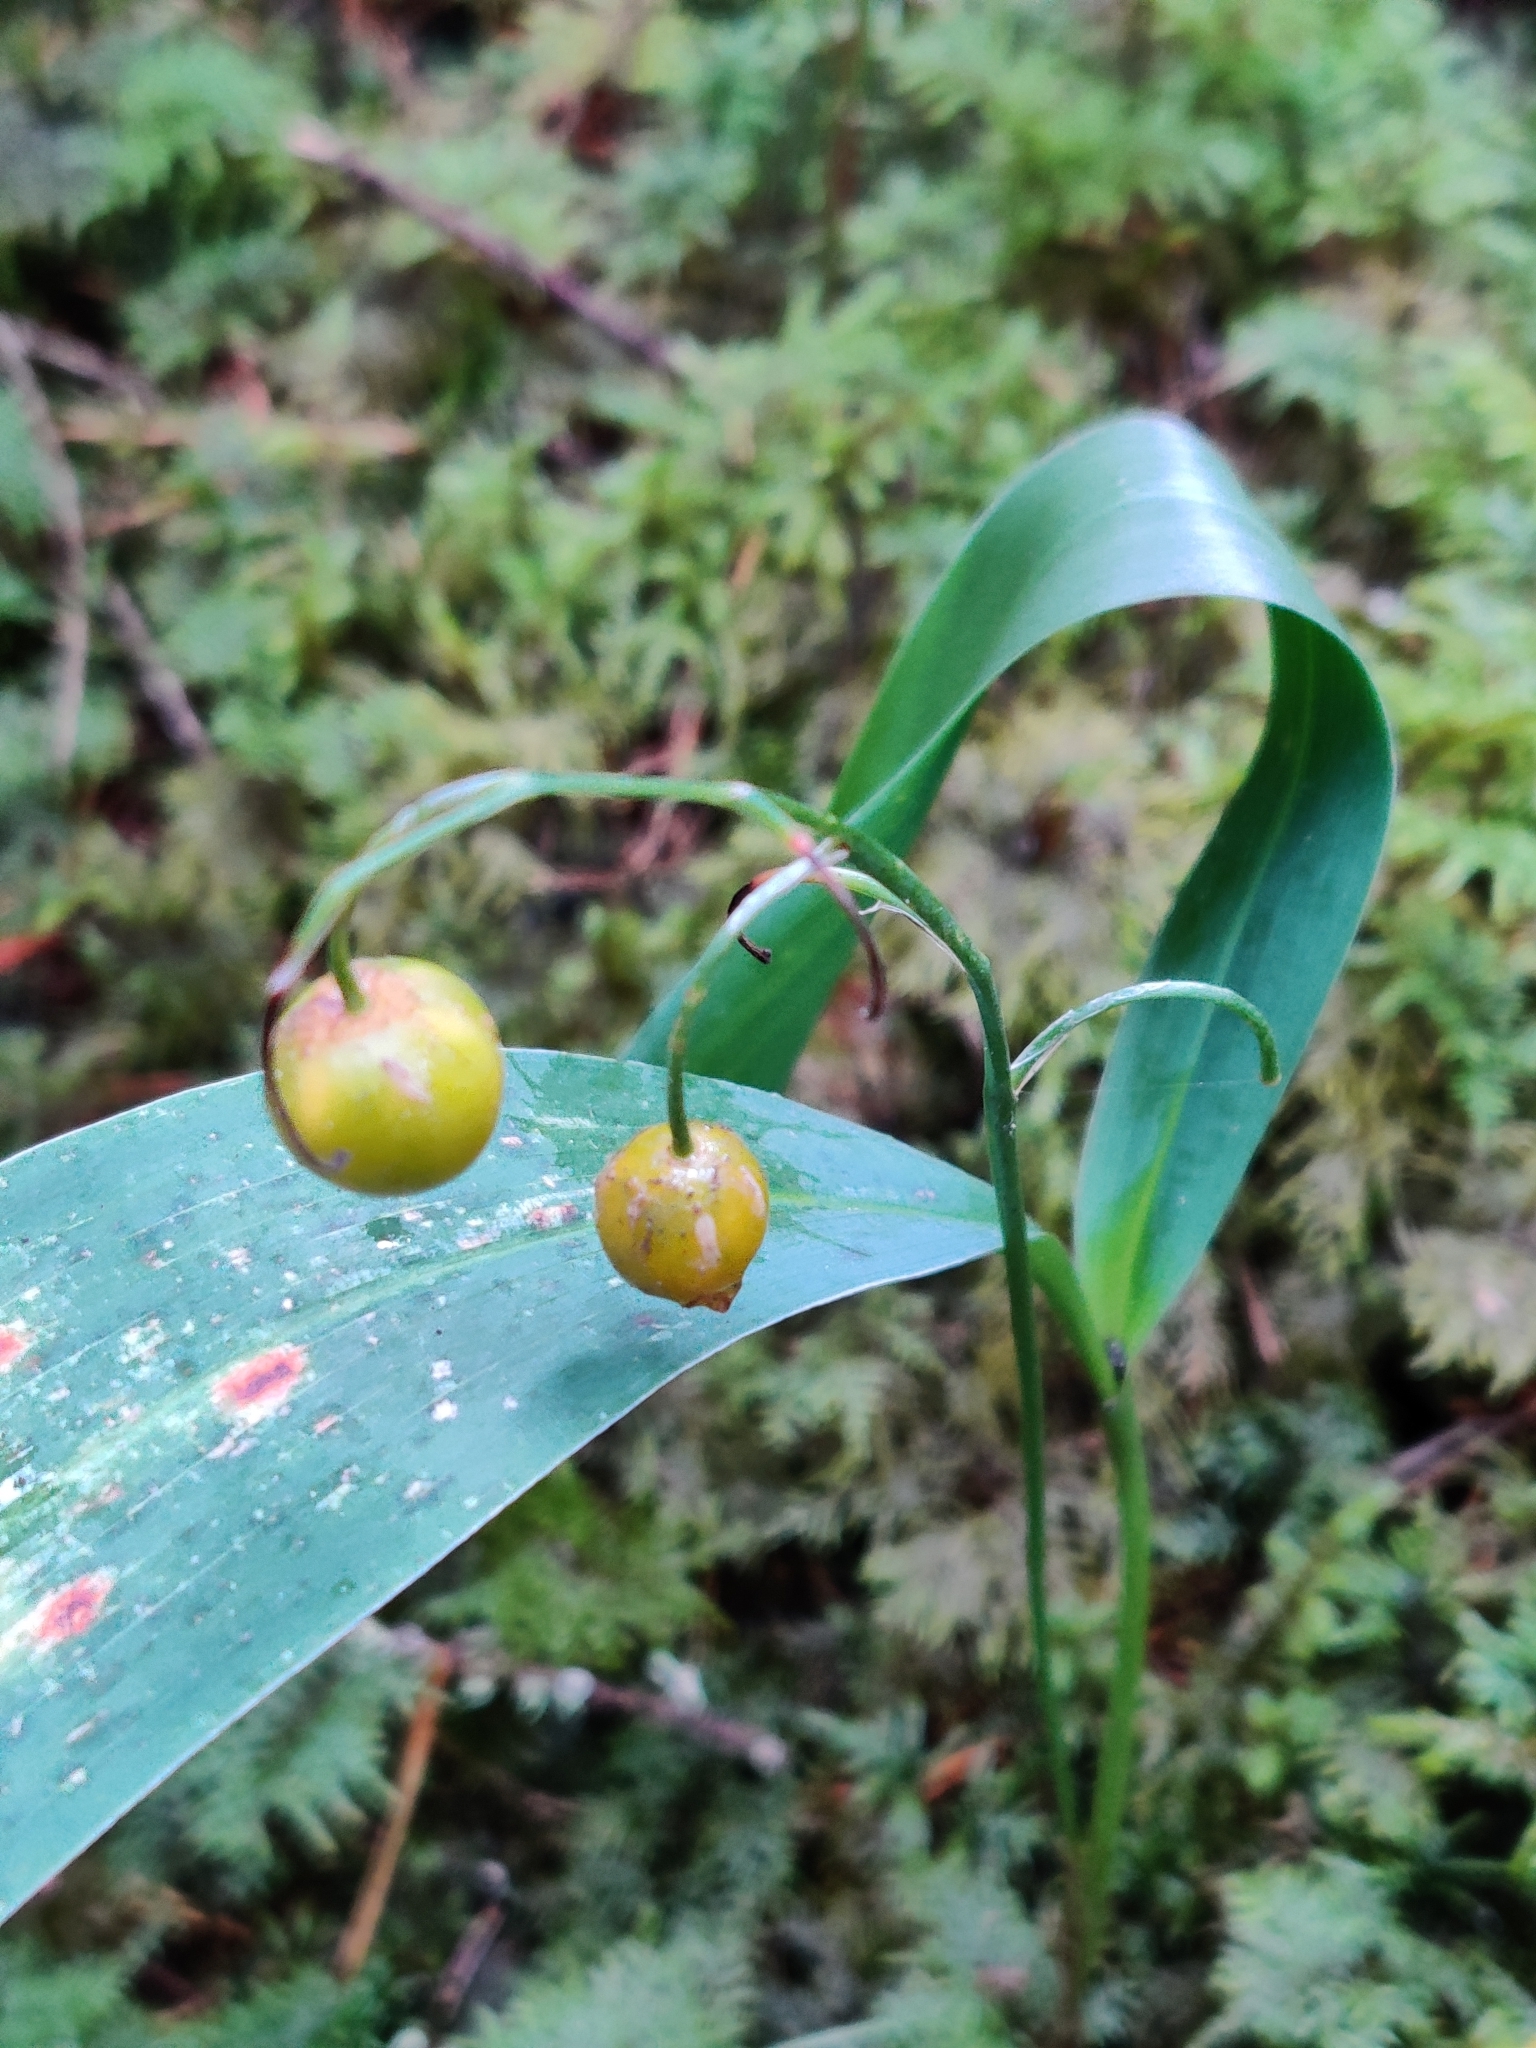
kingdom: Plantae
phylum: Tracheophyta
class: Liliopsida
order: Asparagales
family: Asparagaceae
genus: Convallaria
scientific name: Convallaria majalis
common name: Lily-of-the-valley
